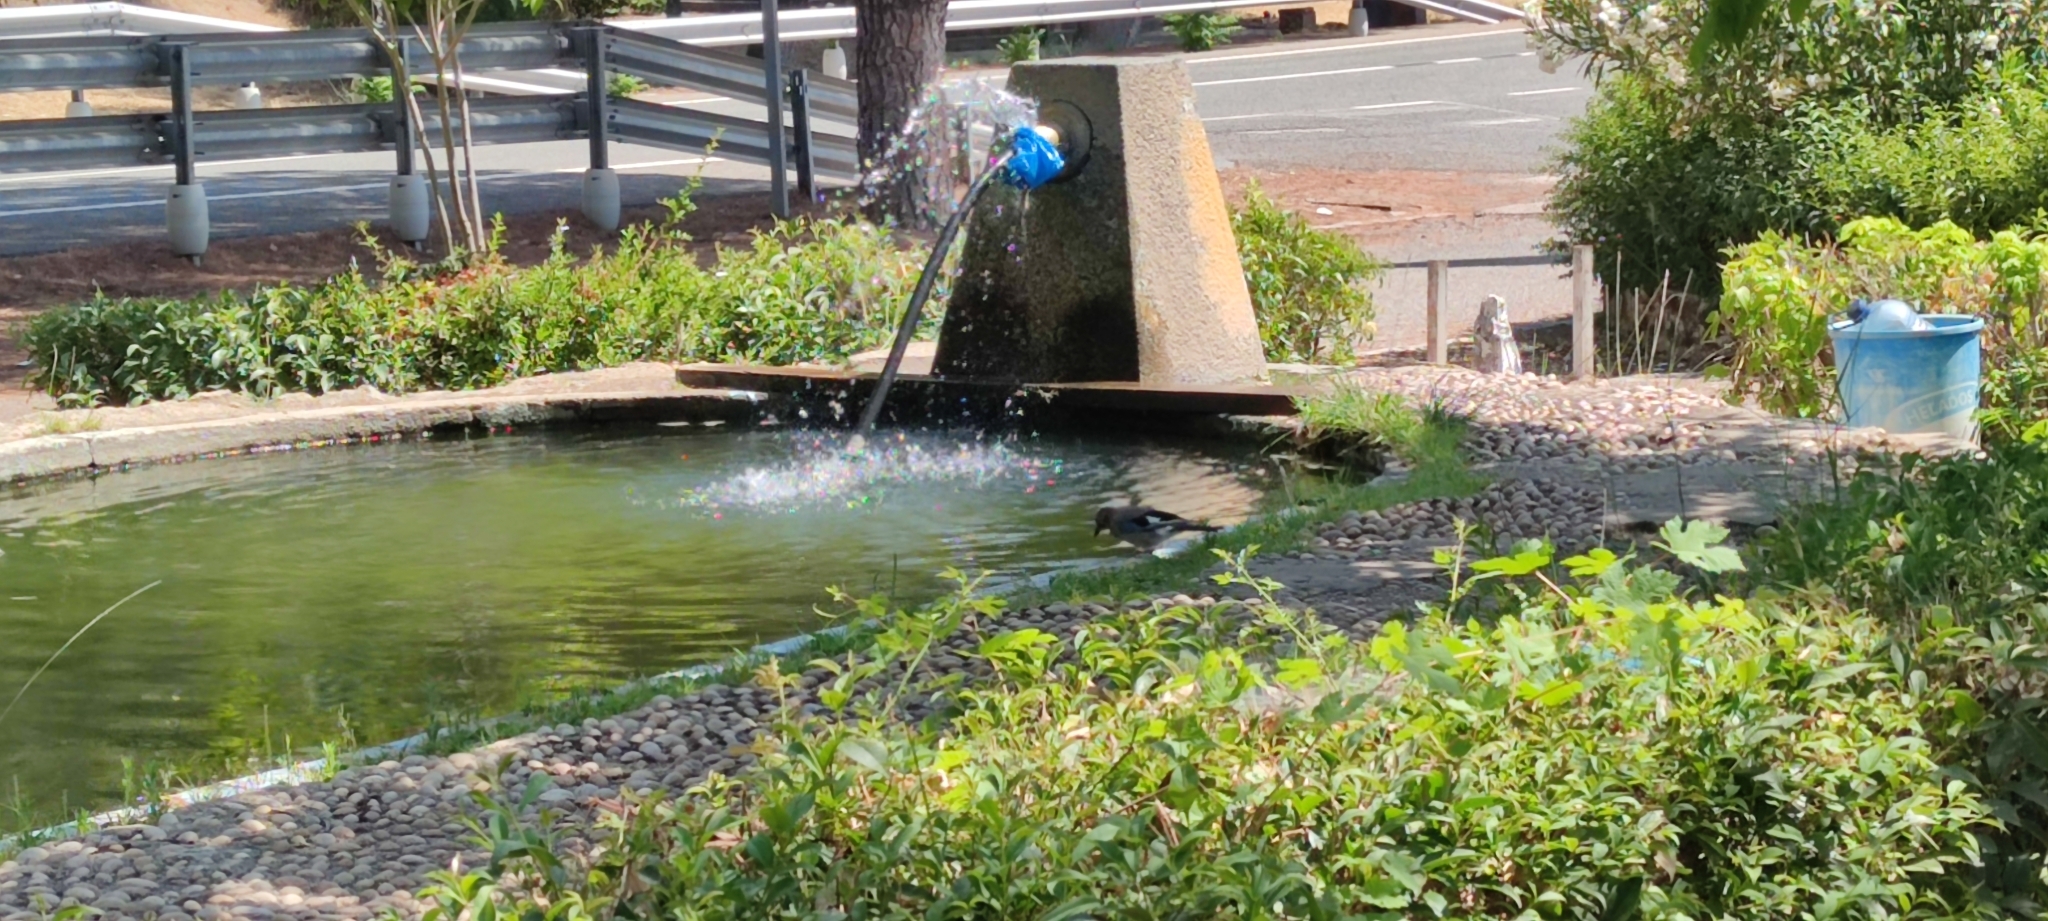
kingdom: Animalia
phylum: Chordata
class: Aves
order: Passeriformes
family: Corvidae
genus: Garrulus
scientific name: Garrulus glandarius
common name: Eurasian jay
